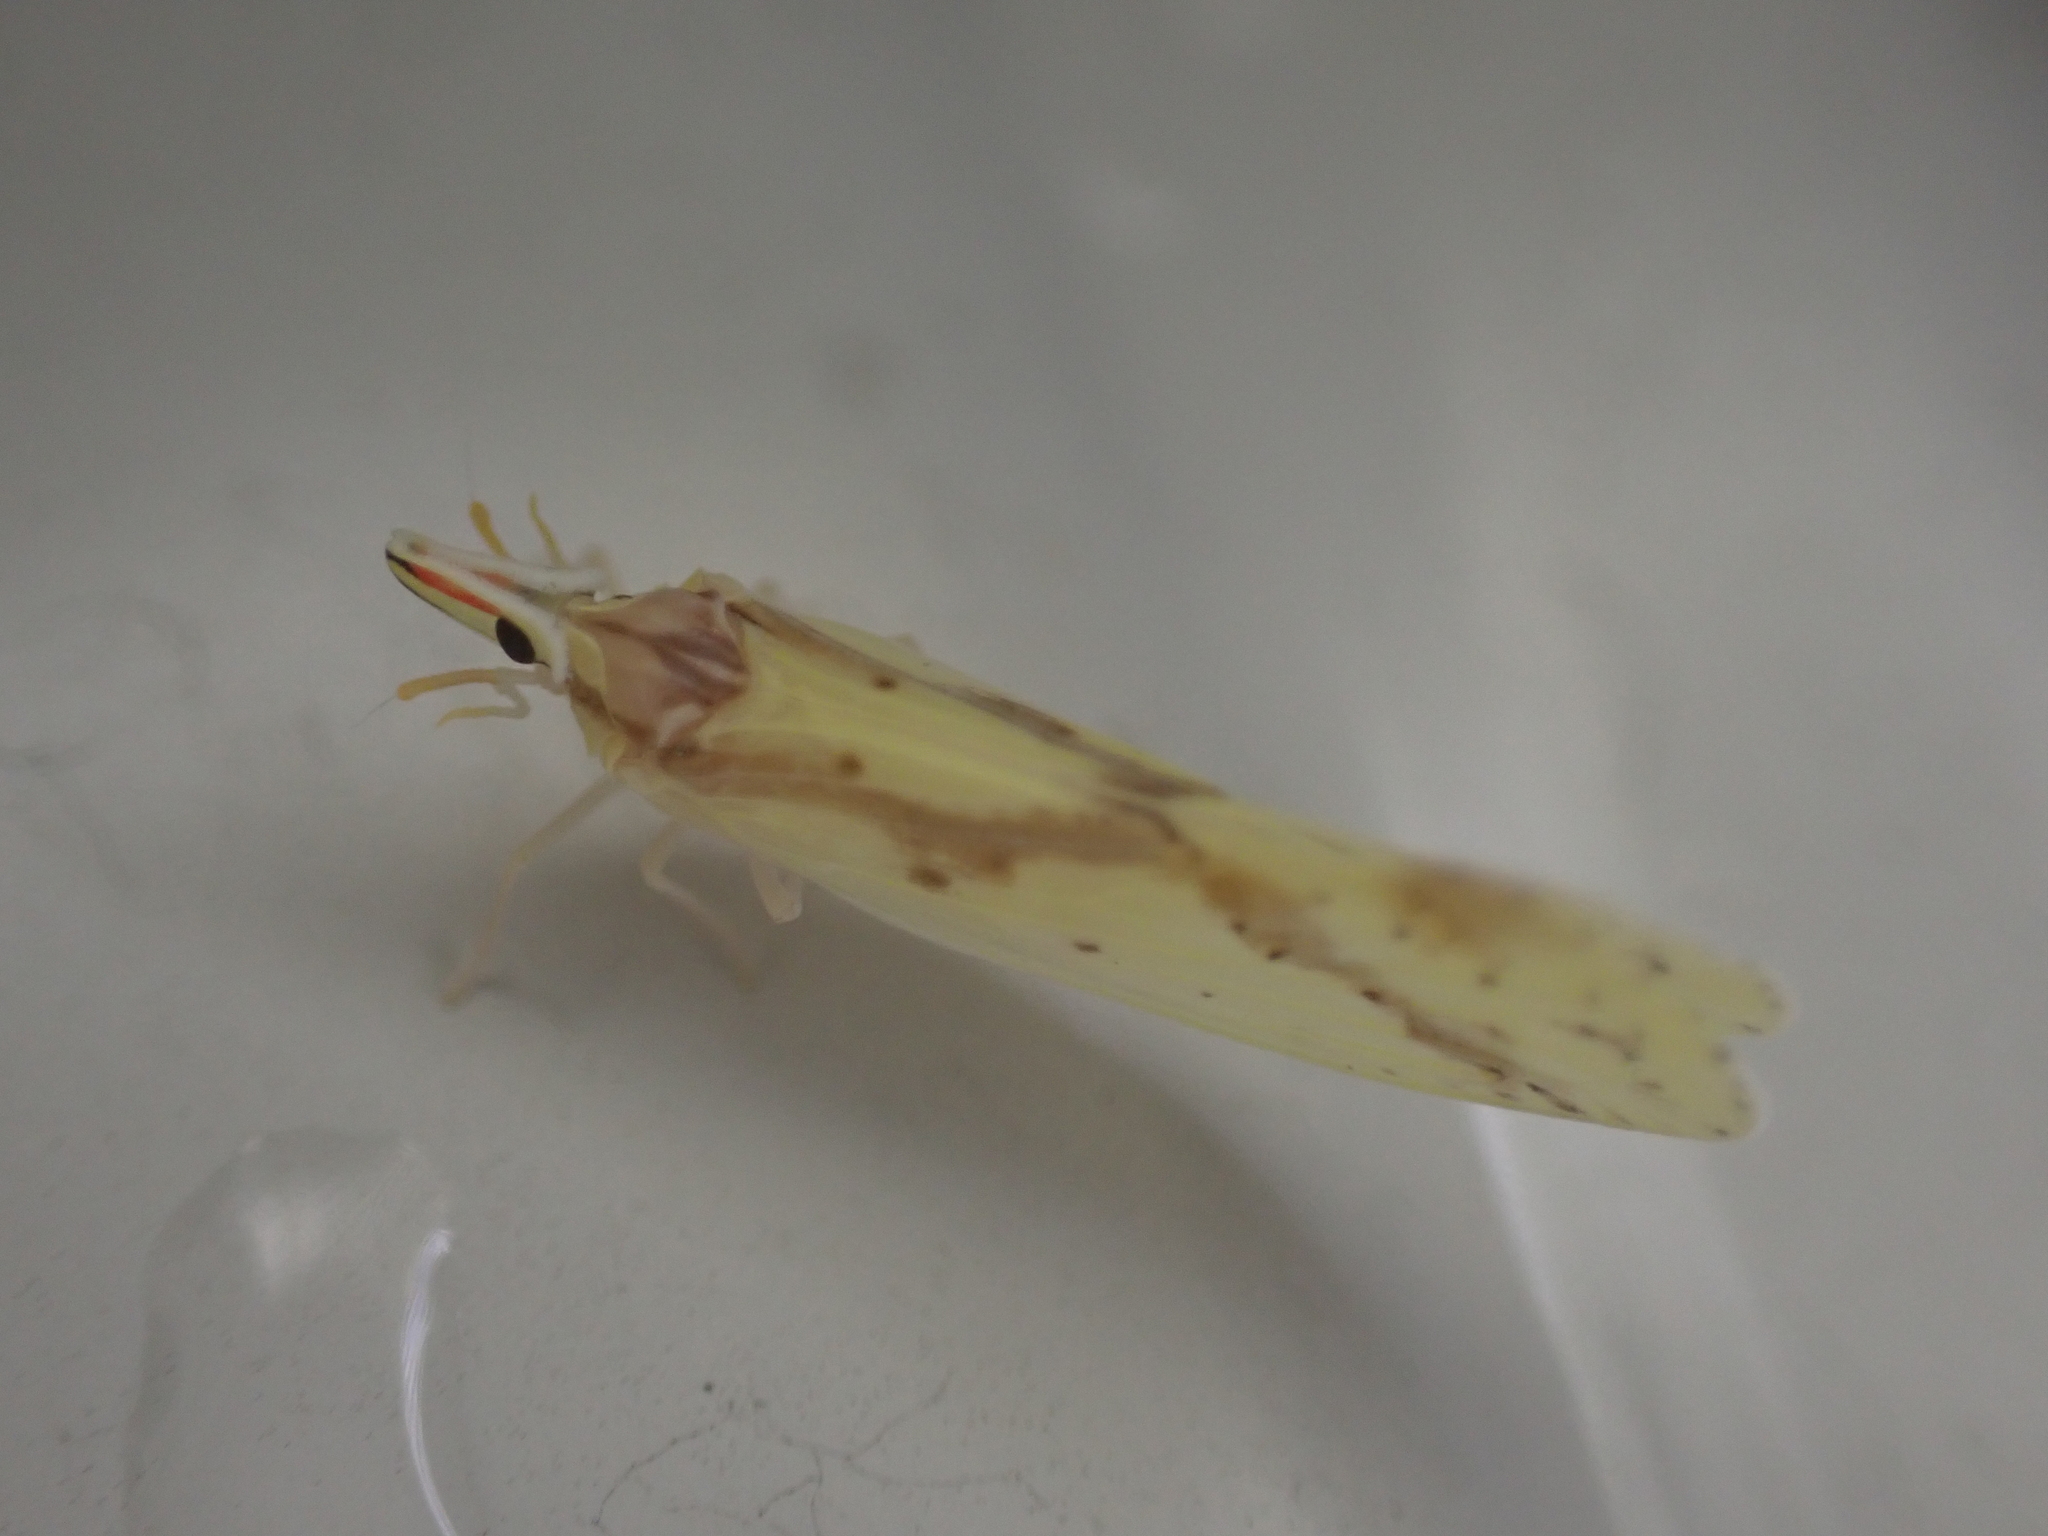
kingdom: Animalia
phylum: Arthropoda
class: Insecta
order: Hemiptera
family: Derbidae
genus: Otiocerus
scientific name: Otiocerus wolfii
